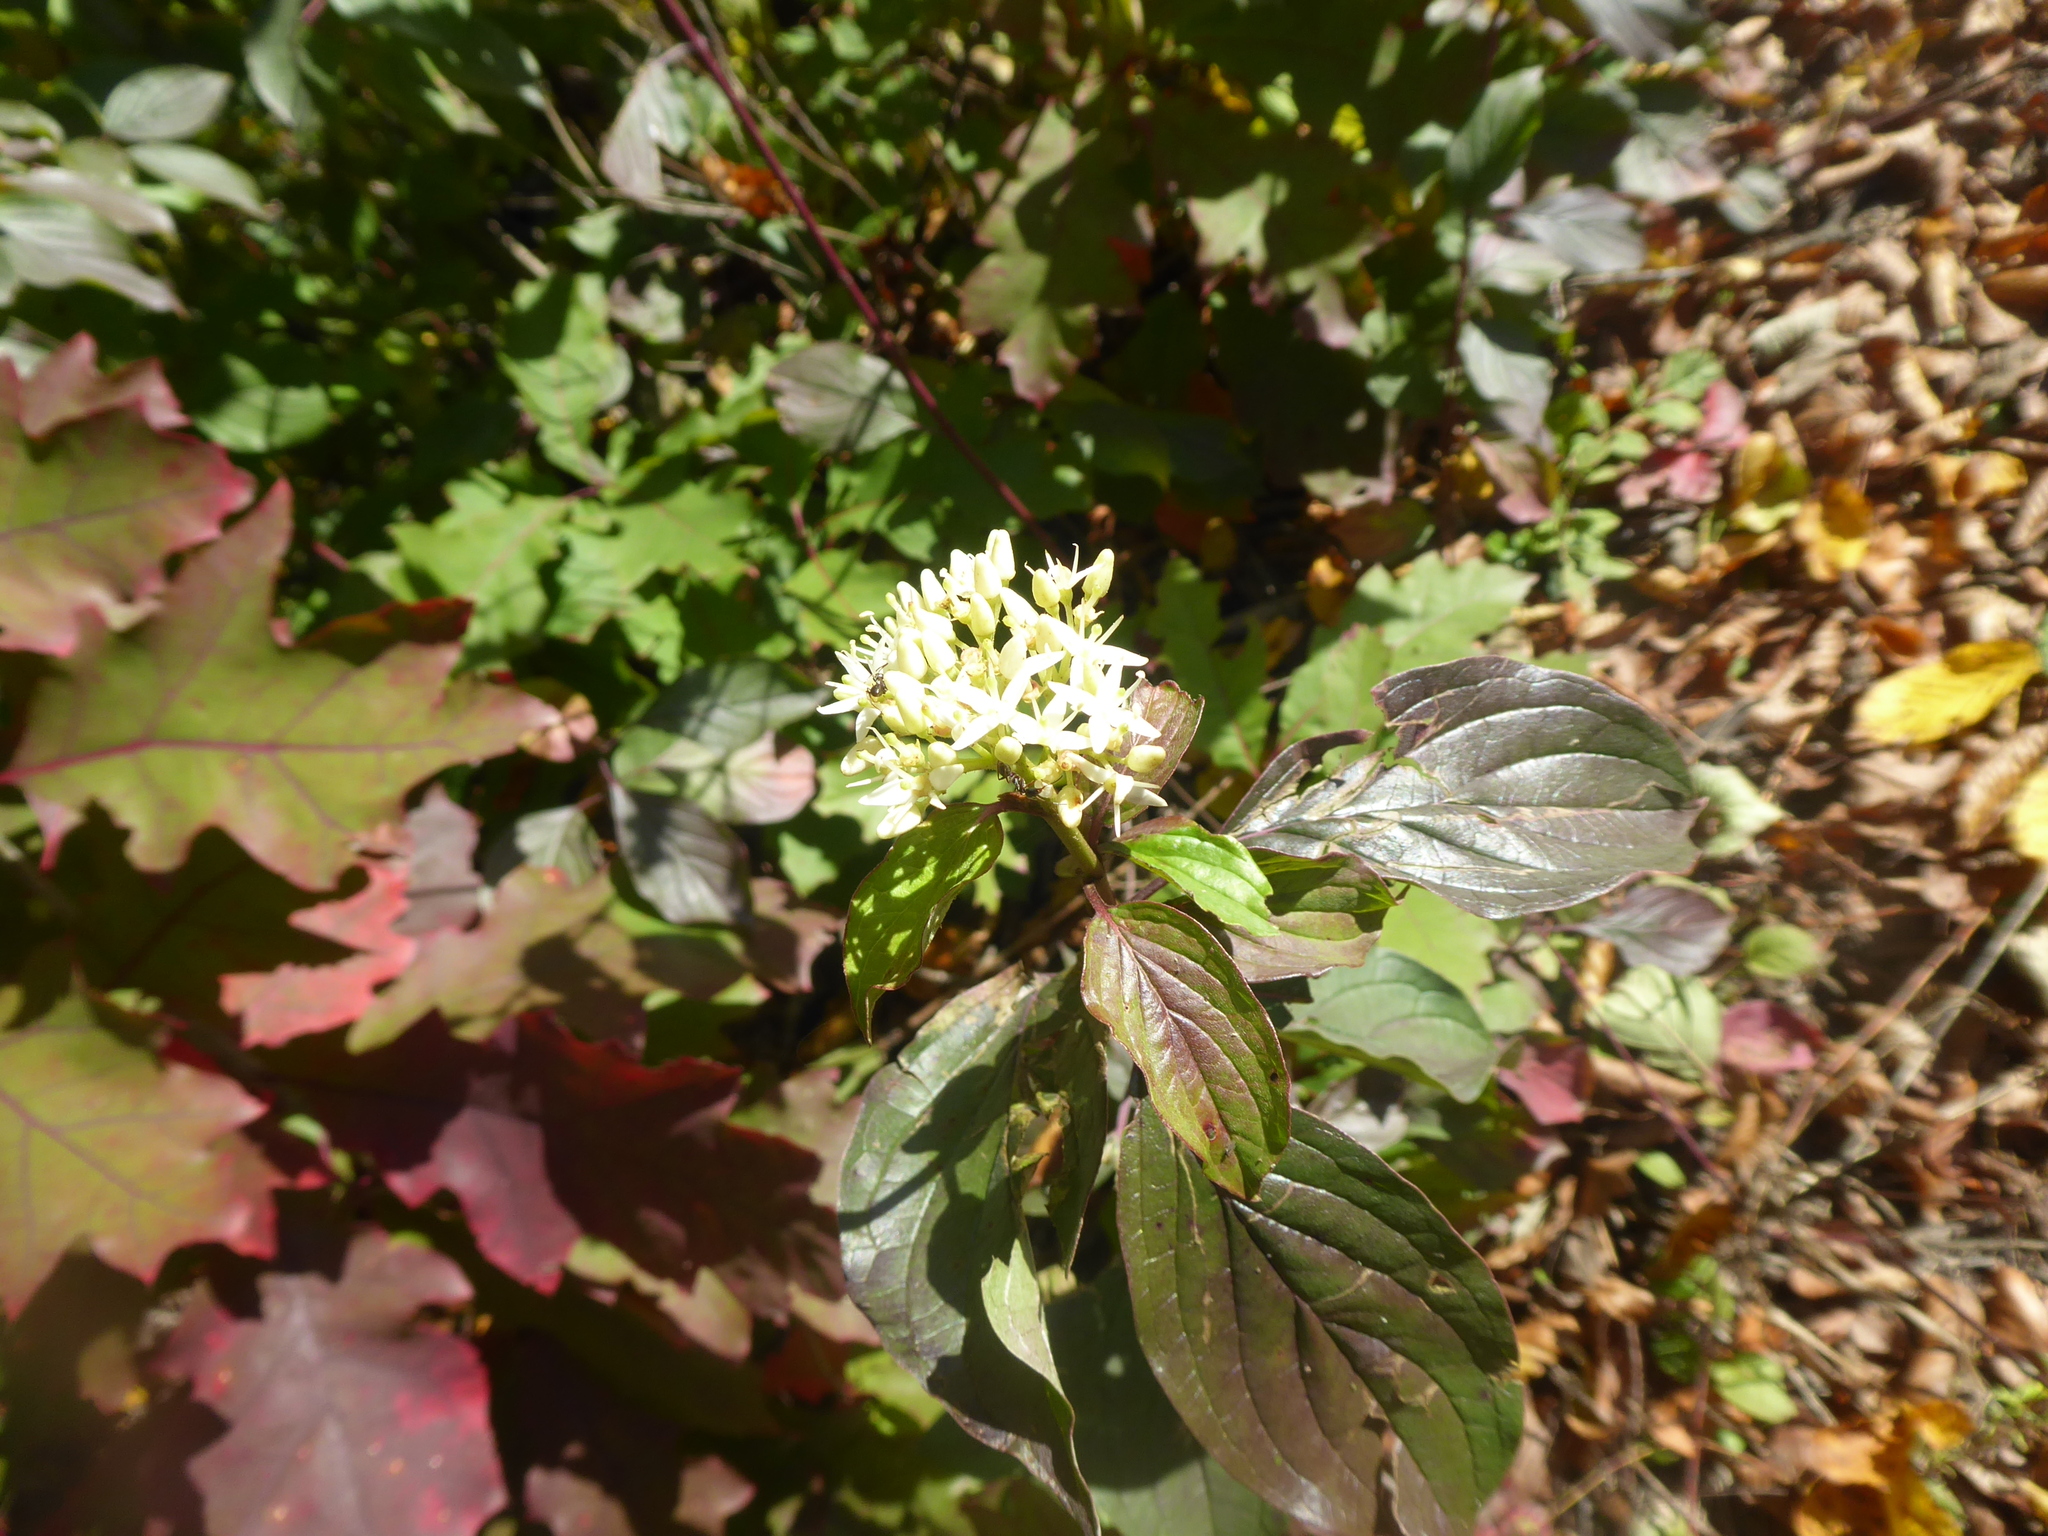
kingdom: Plantae
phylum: Tracheophyta
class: Magnoliopsida
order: Cornales
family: Cornaceae
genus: Cornus
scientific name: Cornus sanguinea
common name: Dogwood
